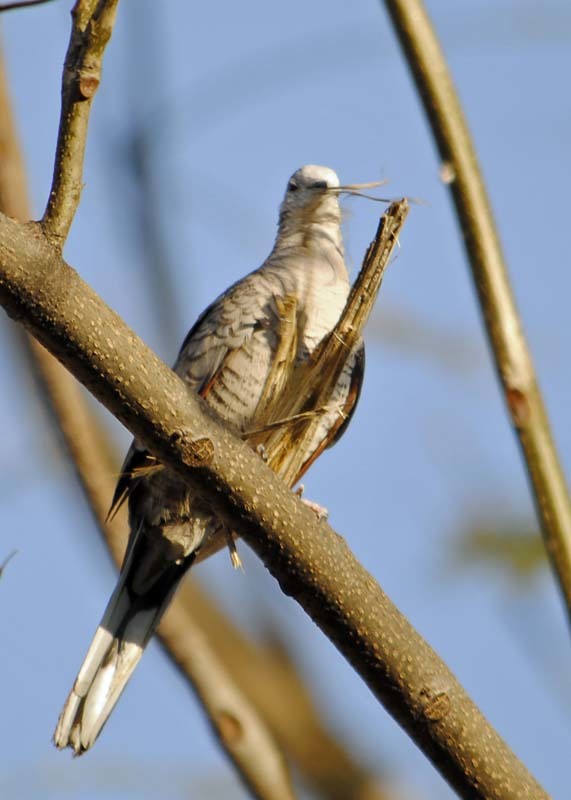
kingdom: Animalia
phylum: Chordata
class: Aves
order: Columbiformes
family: Columbidae
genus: Columbina
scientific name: Columbina inca
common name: Inca dove
